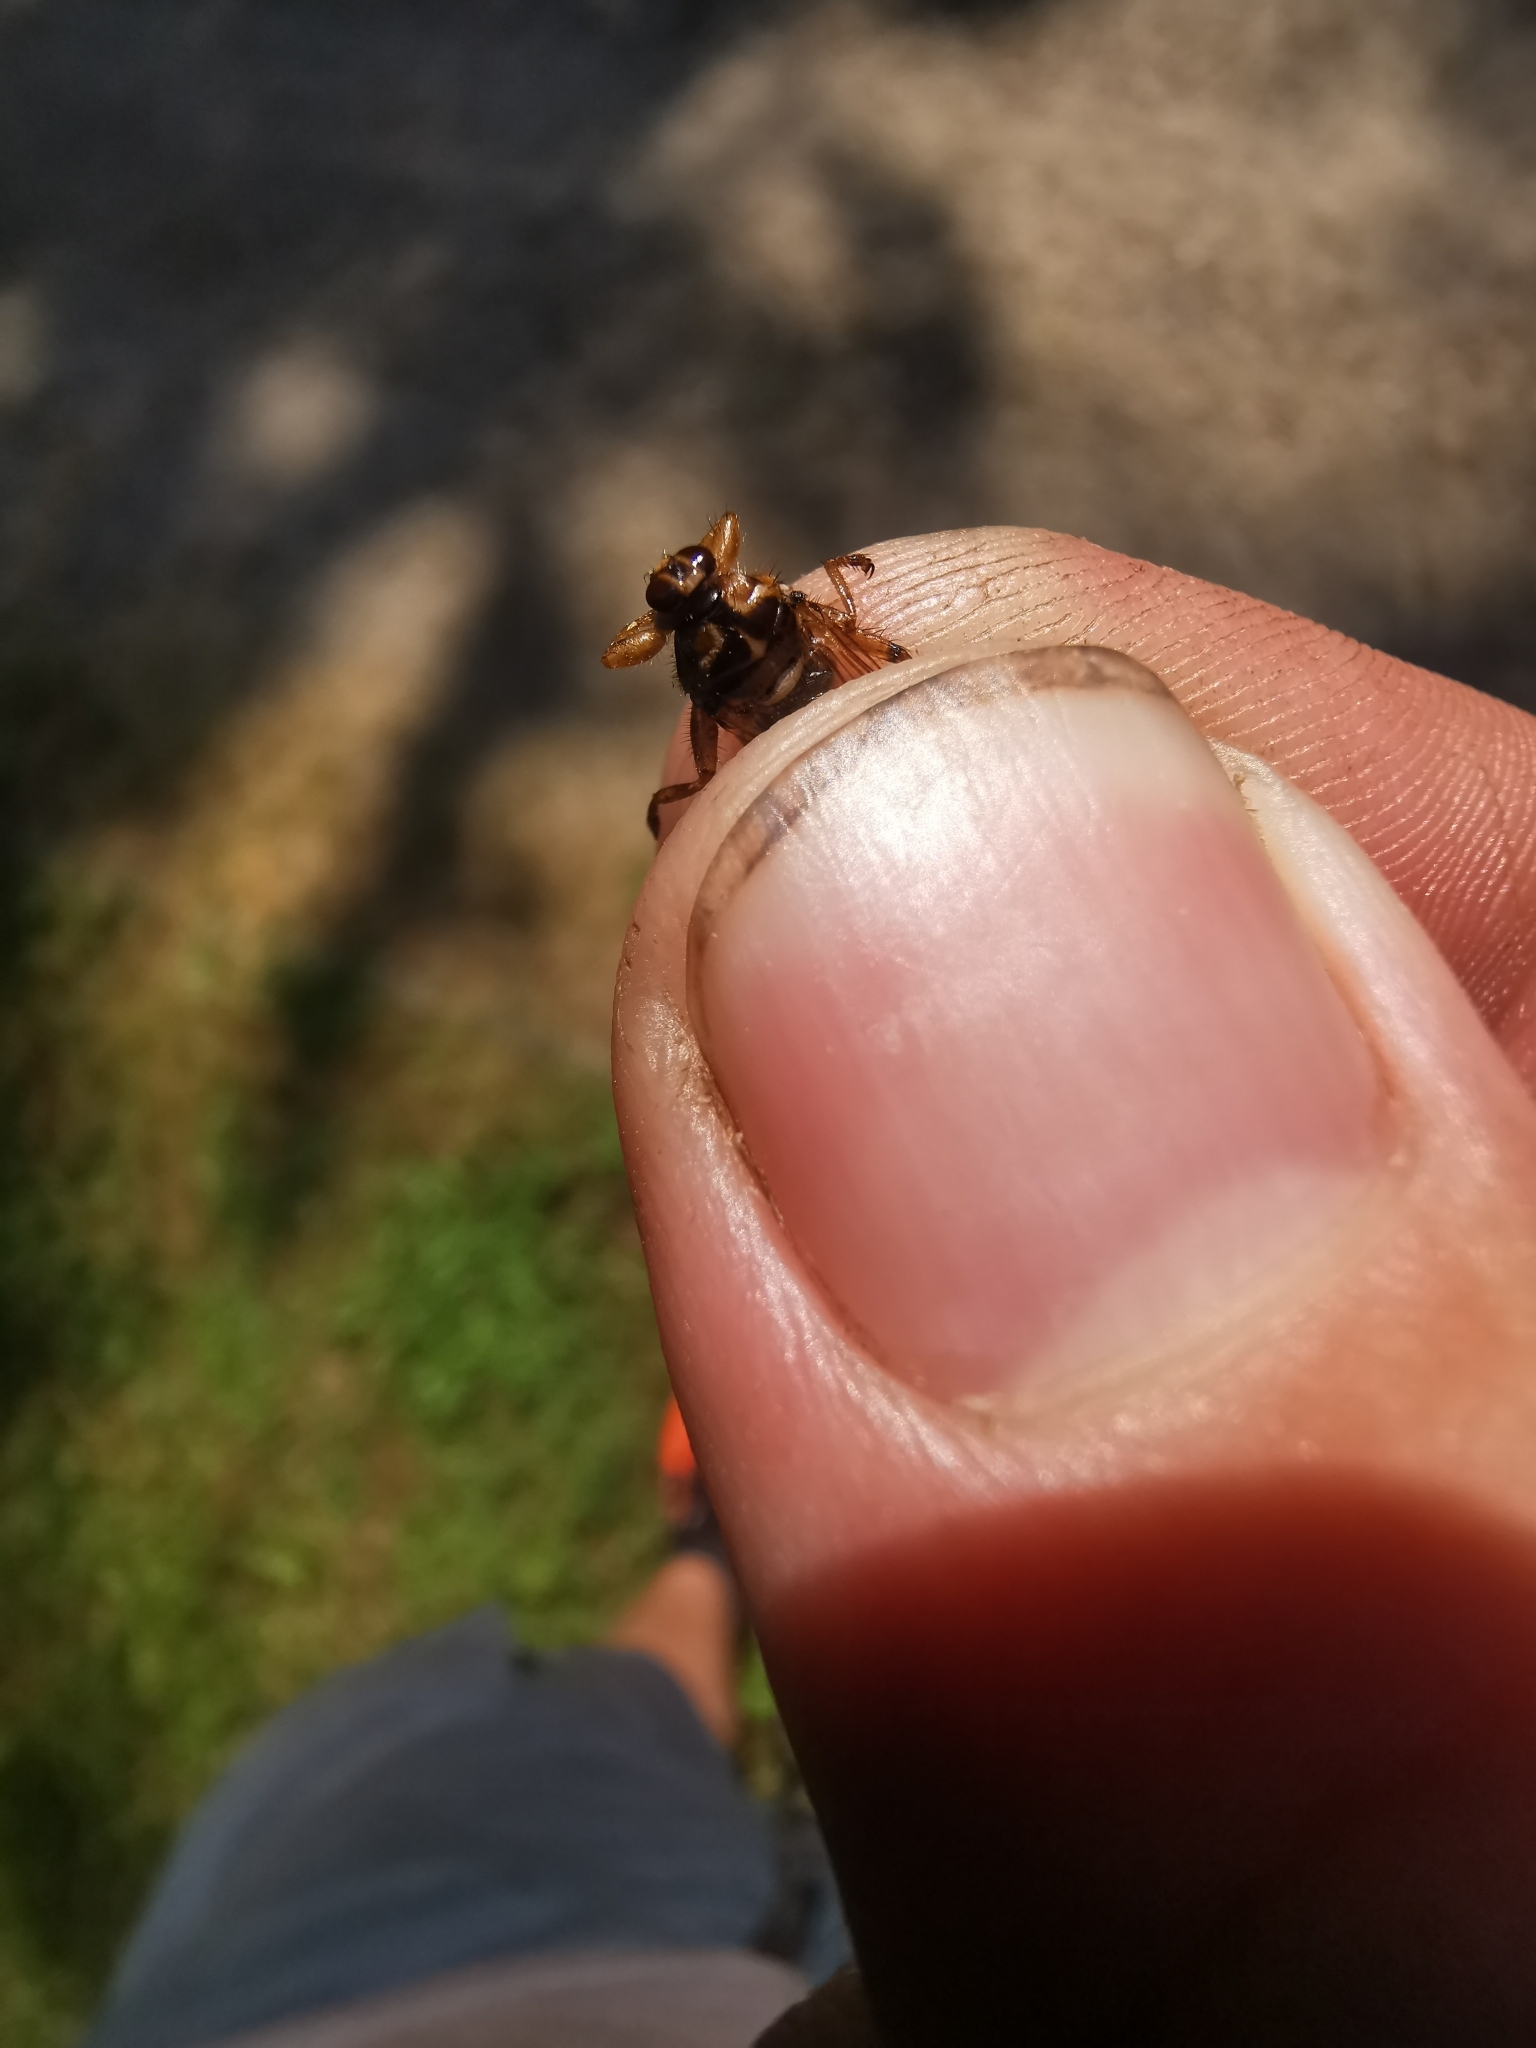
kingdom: Animalia
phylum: Arthropoda
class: Insecta
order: Diptera
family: Hippoboscidae
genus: Hippobosca
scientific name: Hippobosca equina
